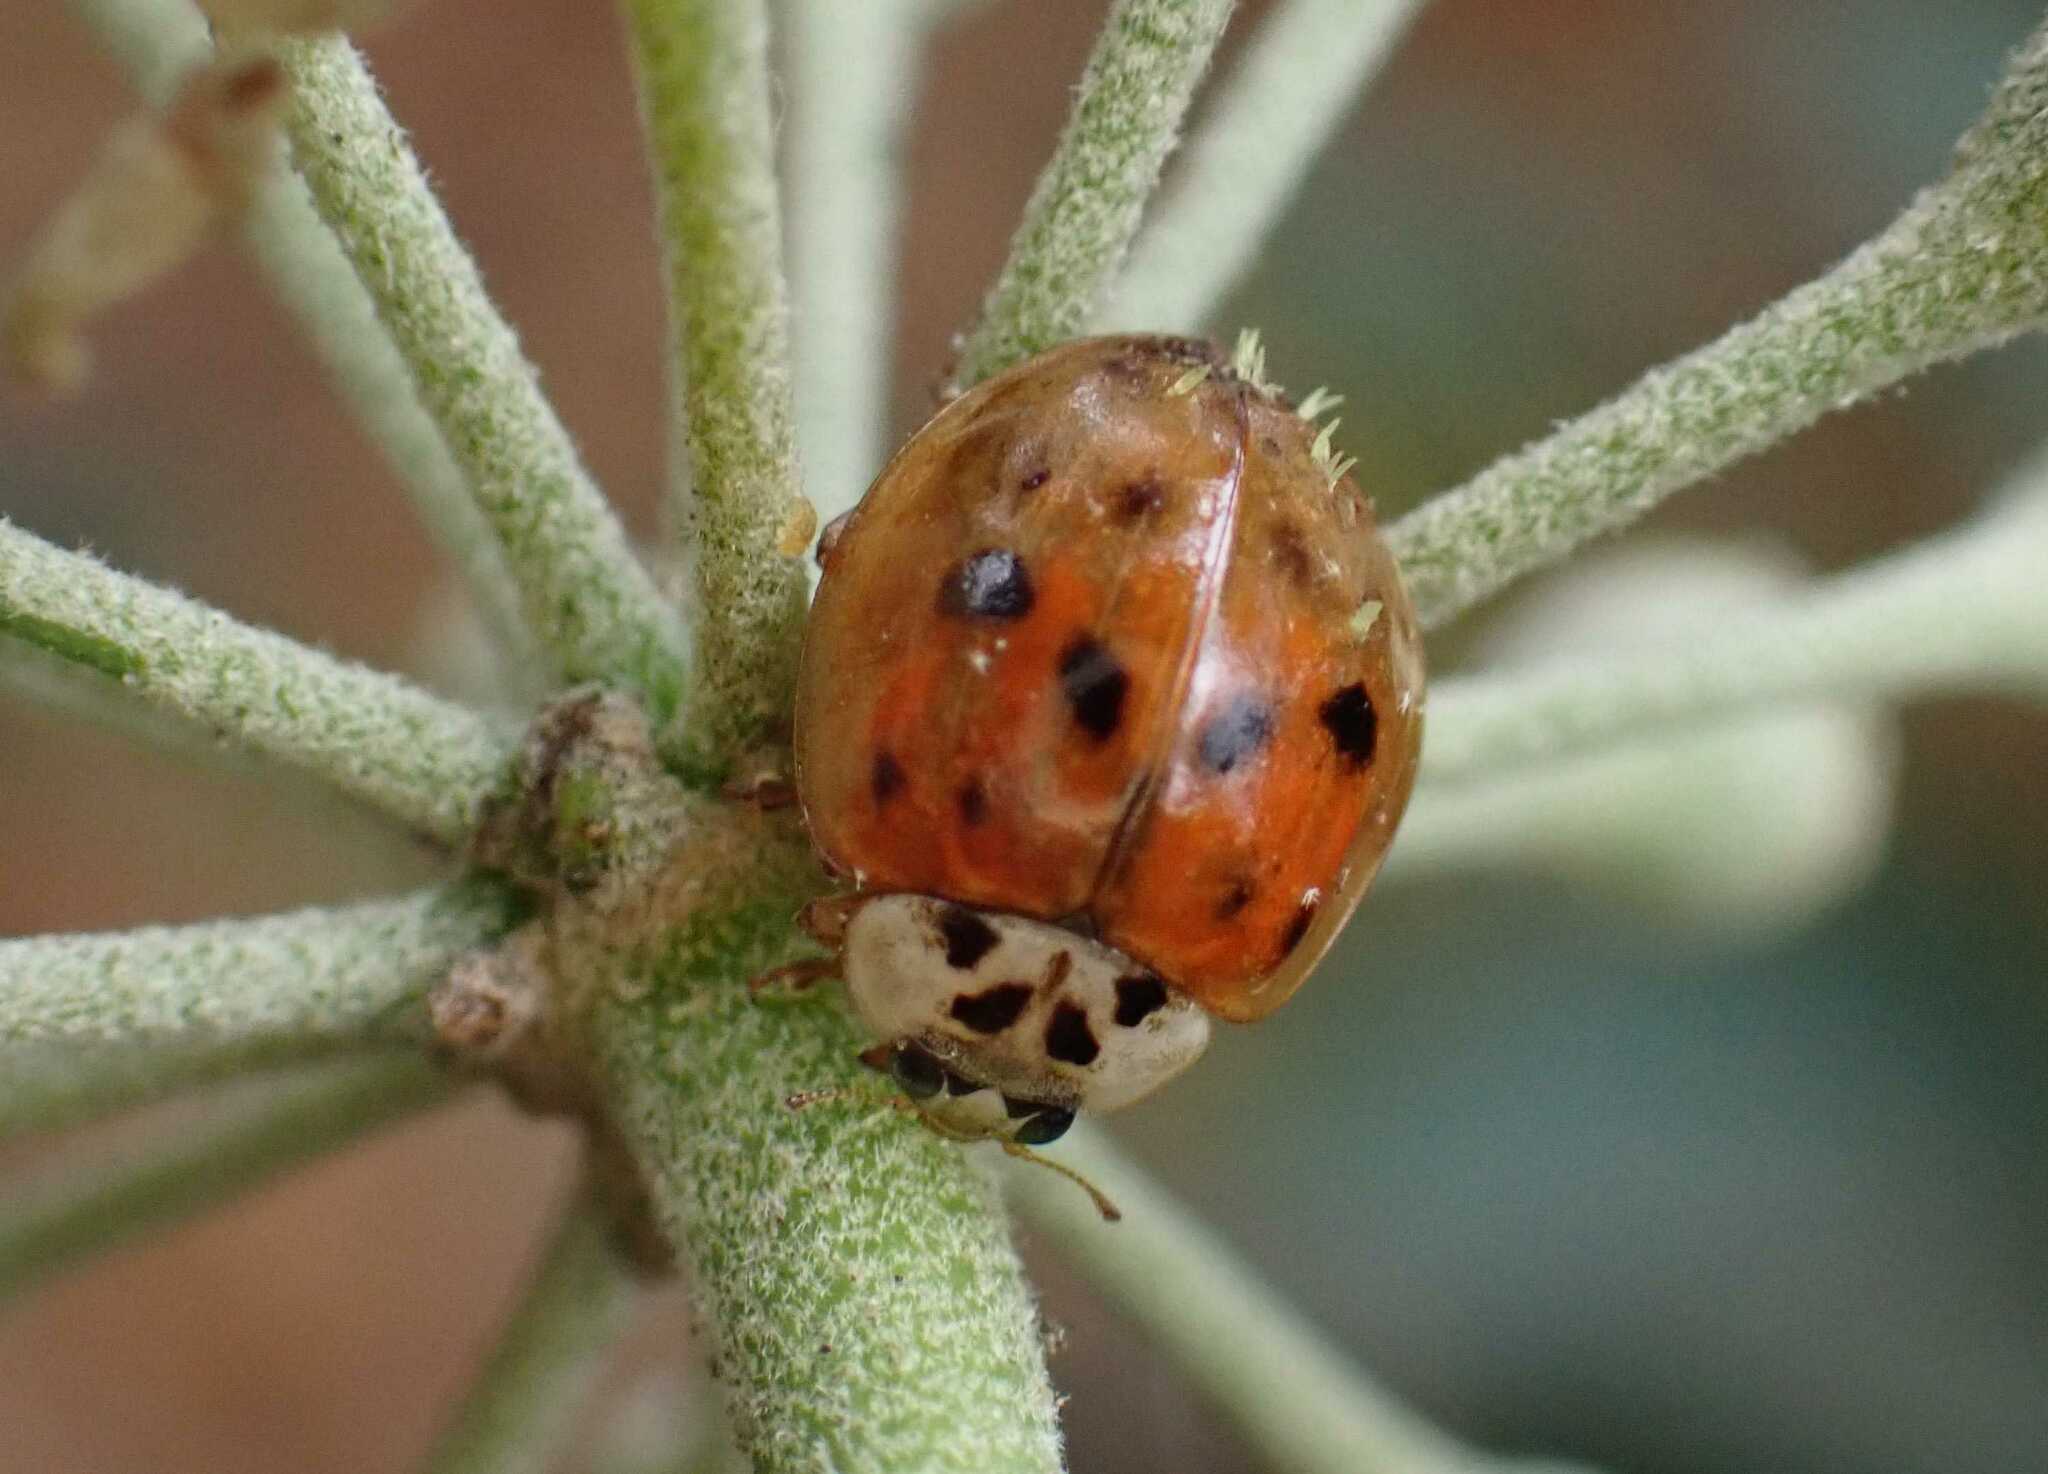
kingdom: Animalia
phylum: Arthropoda
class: Insecta
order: Coleoptera
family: Coccinellidae
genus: Harmonia
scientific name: Harmonia axyridis
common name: Harlequin ladybird
